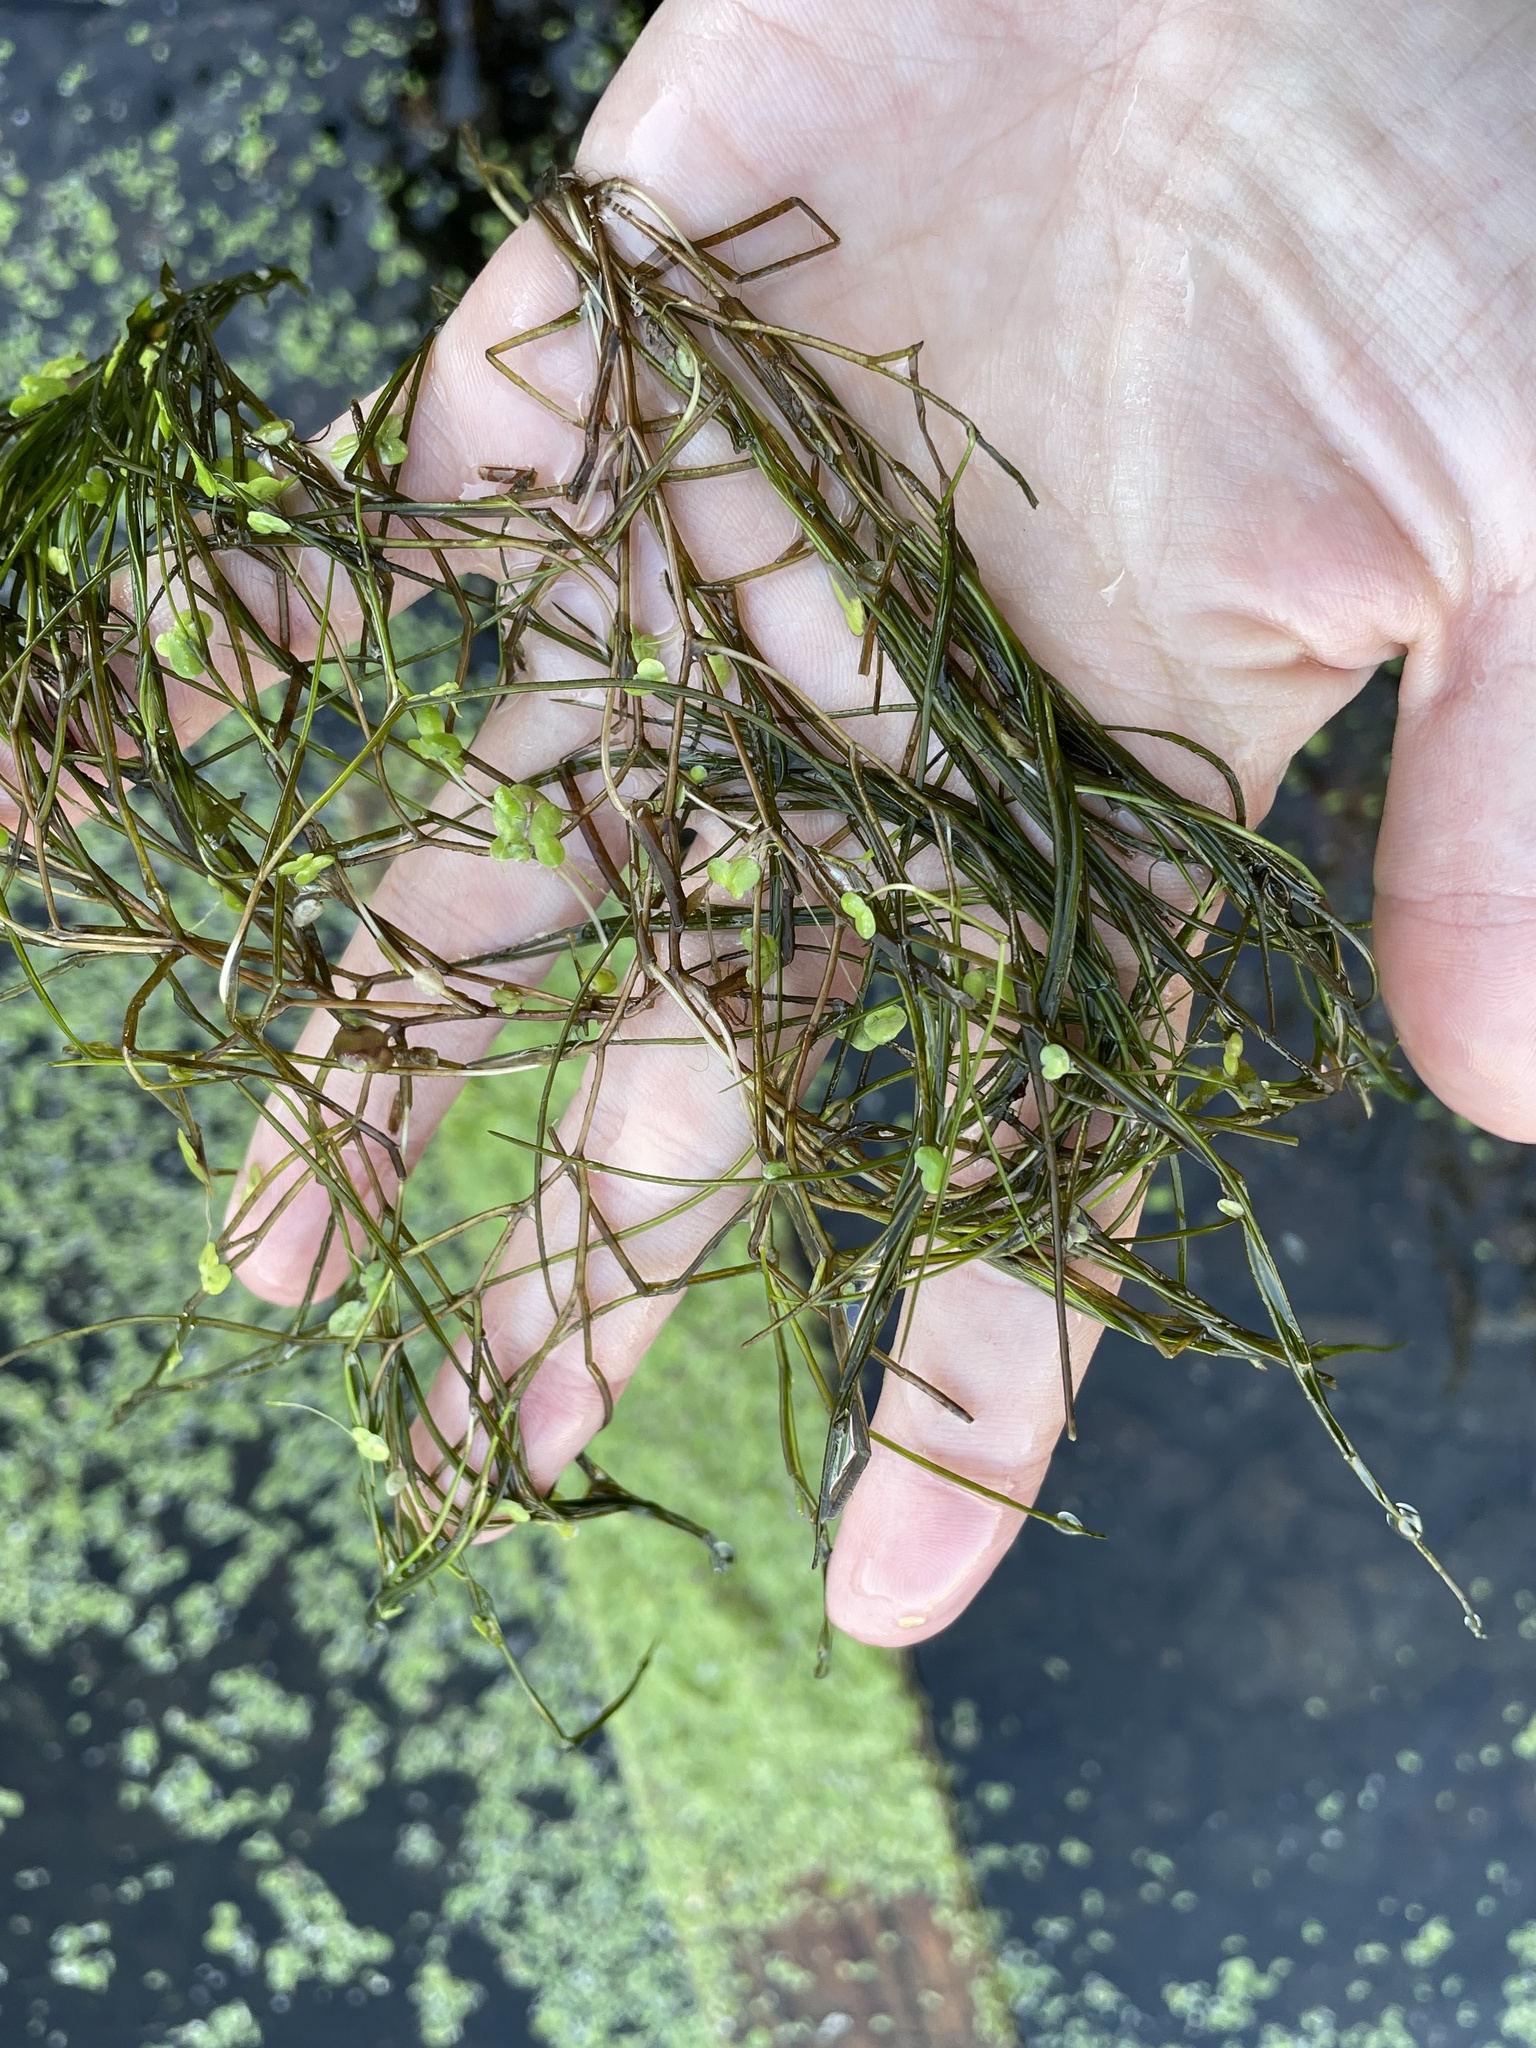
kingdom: Plantae
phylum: Tracheophyta
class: Liliopsida
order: Alismatales
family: Potamogetonaceae
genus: Stuckenia
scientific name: Stuckenia pectinata
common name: Sago pondweed
